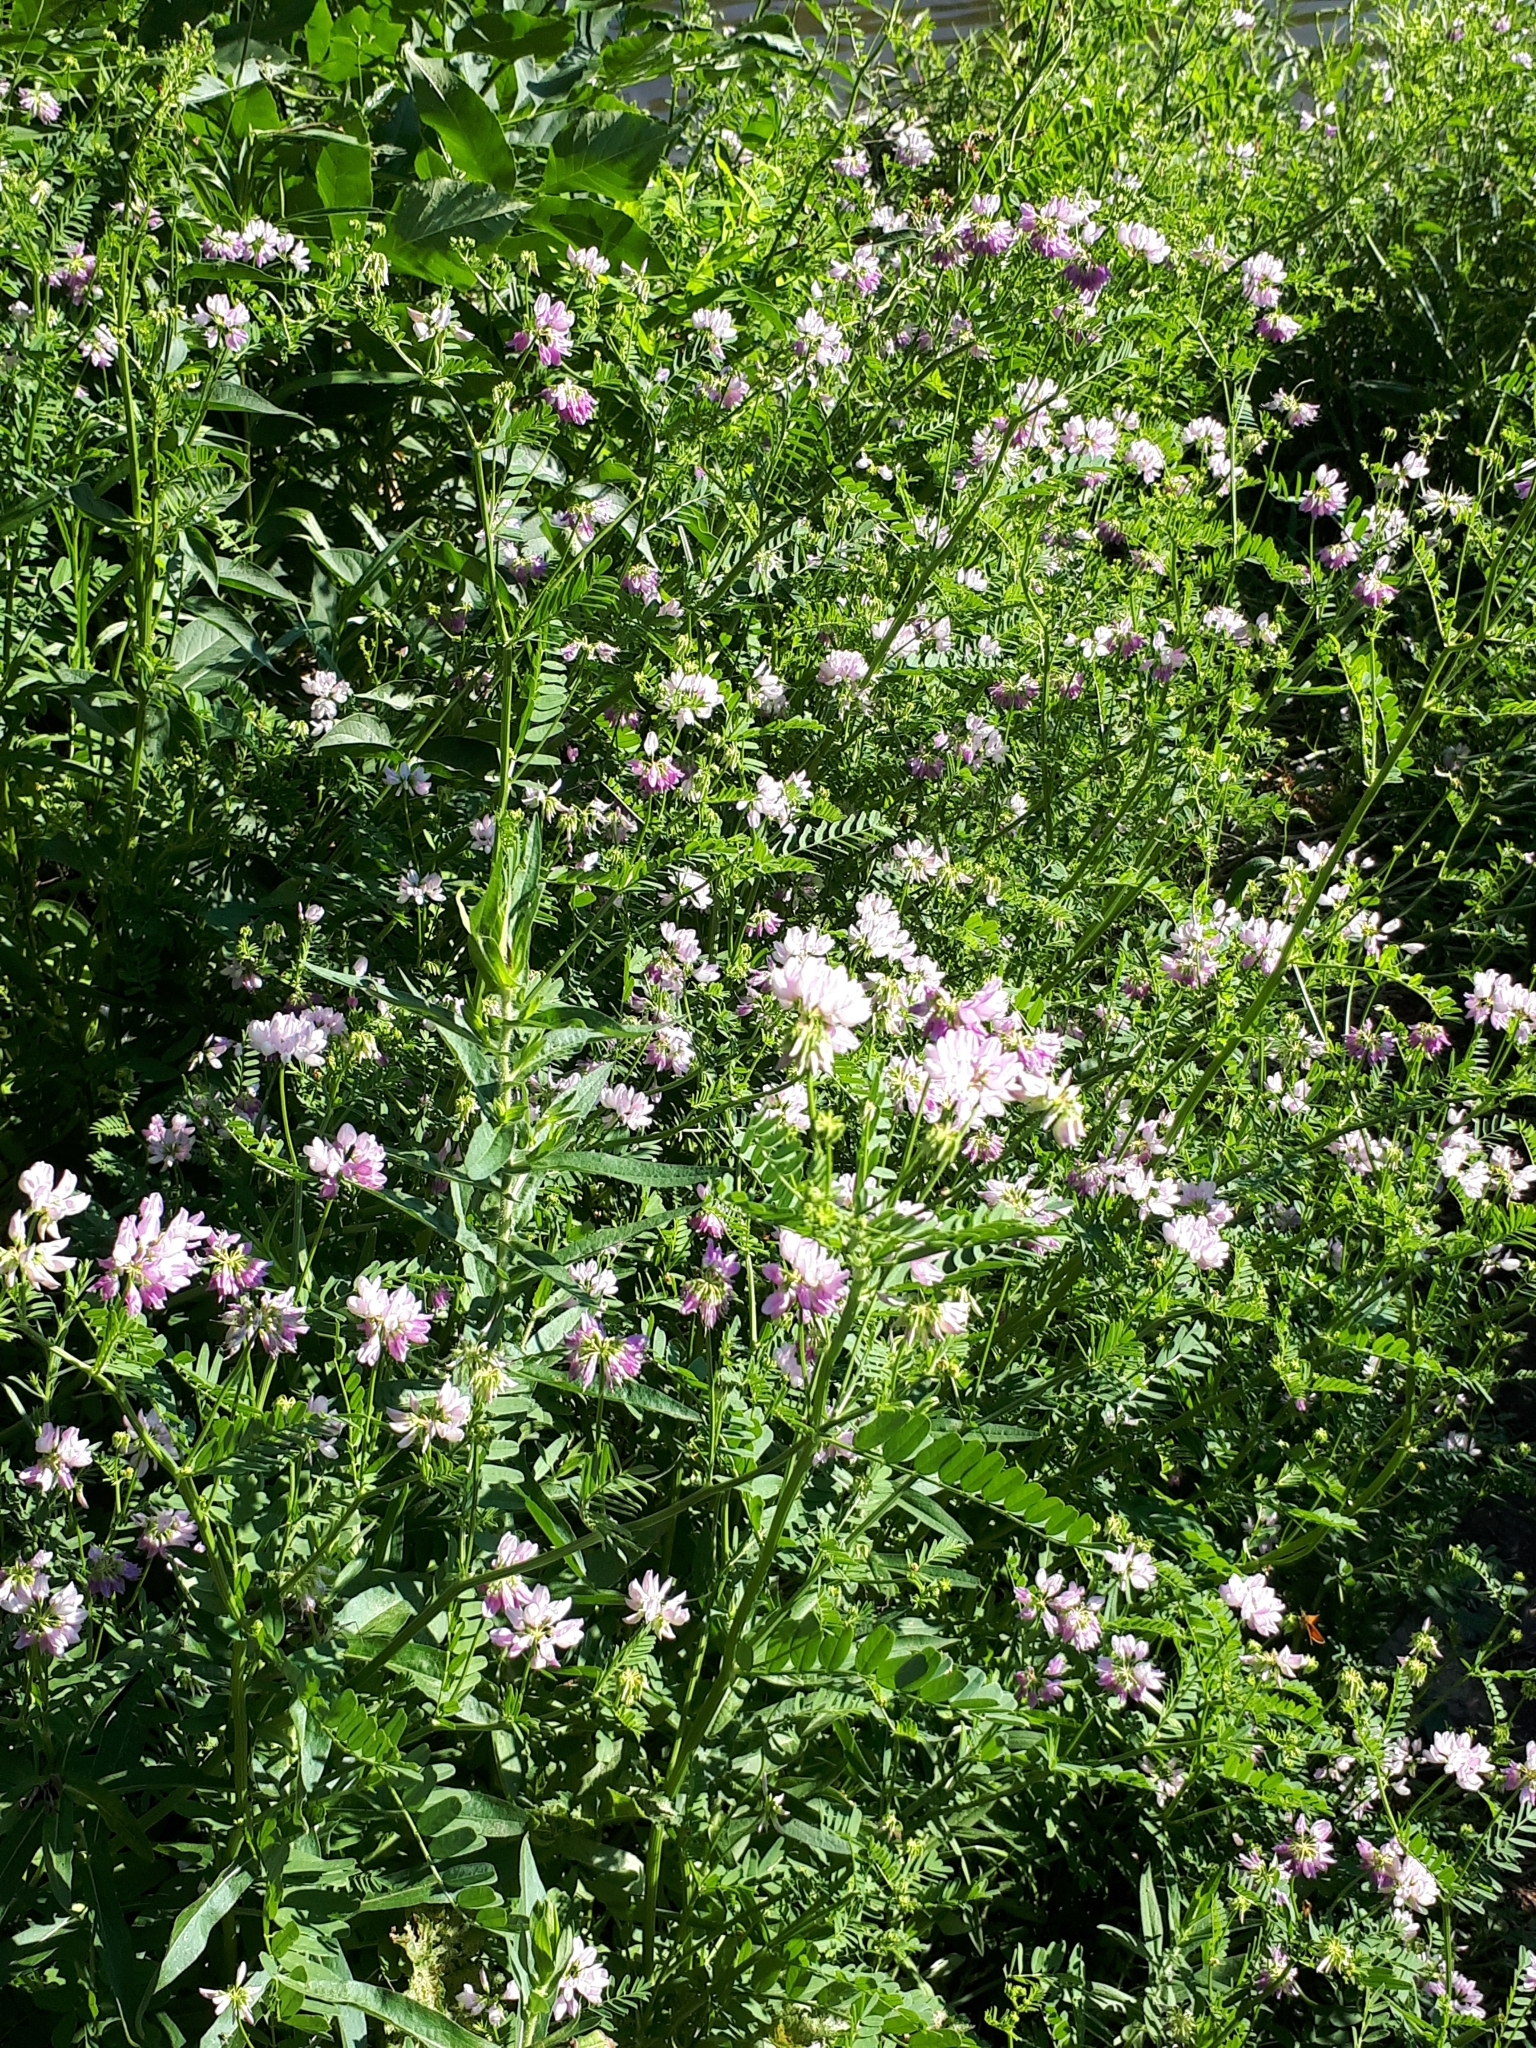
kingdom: Plantae
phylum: Tracheophyta
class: Magnoliopsida
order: Fabales
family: Fabaceae
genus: Coronilla
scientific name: Coronilla varia
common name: Crownvetch
